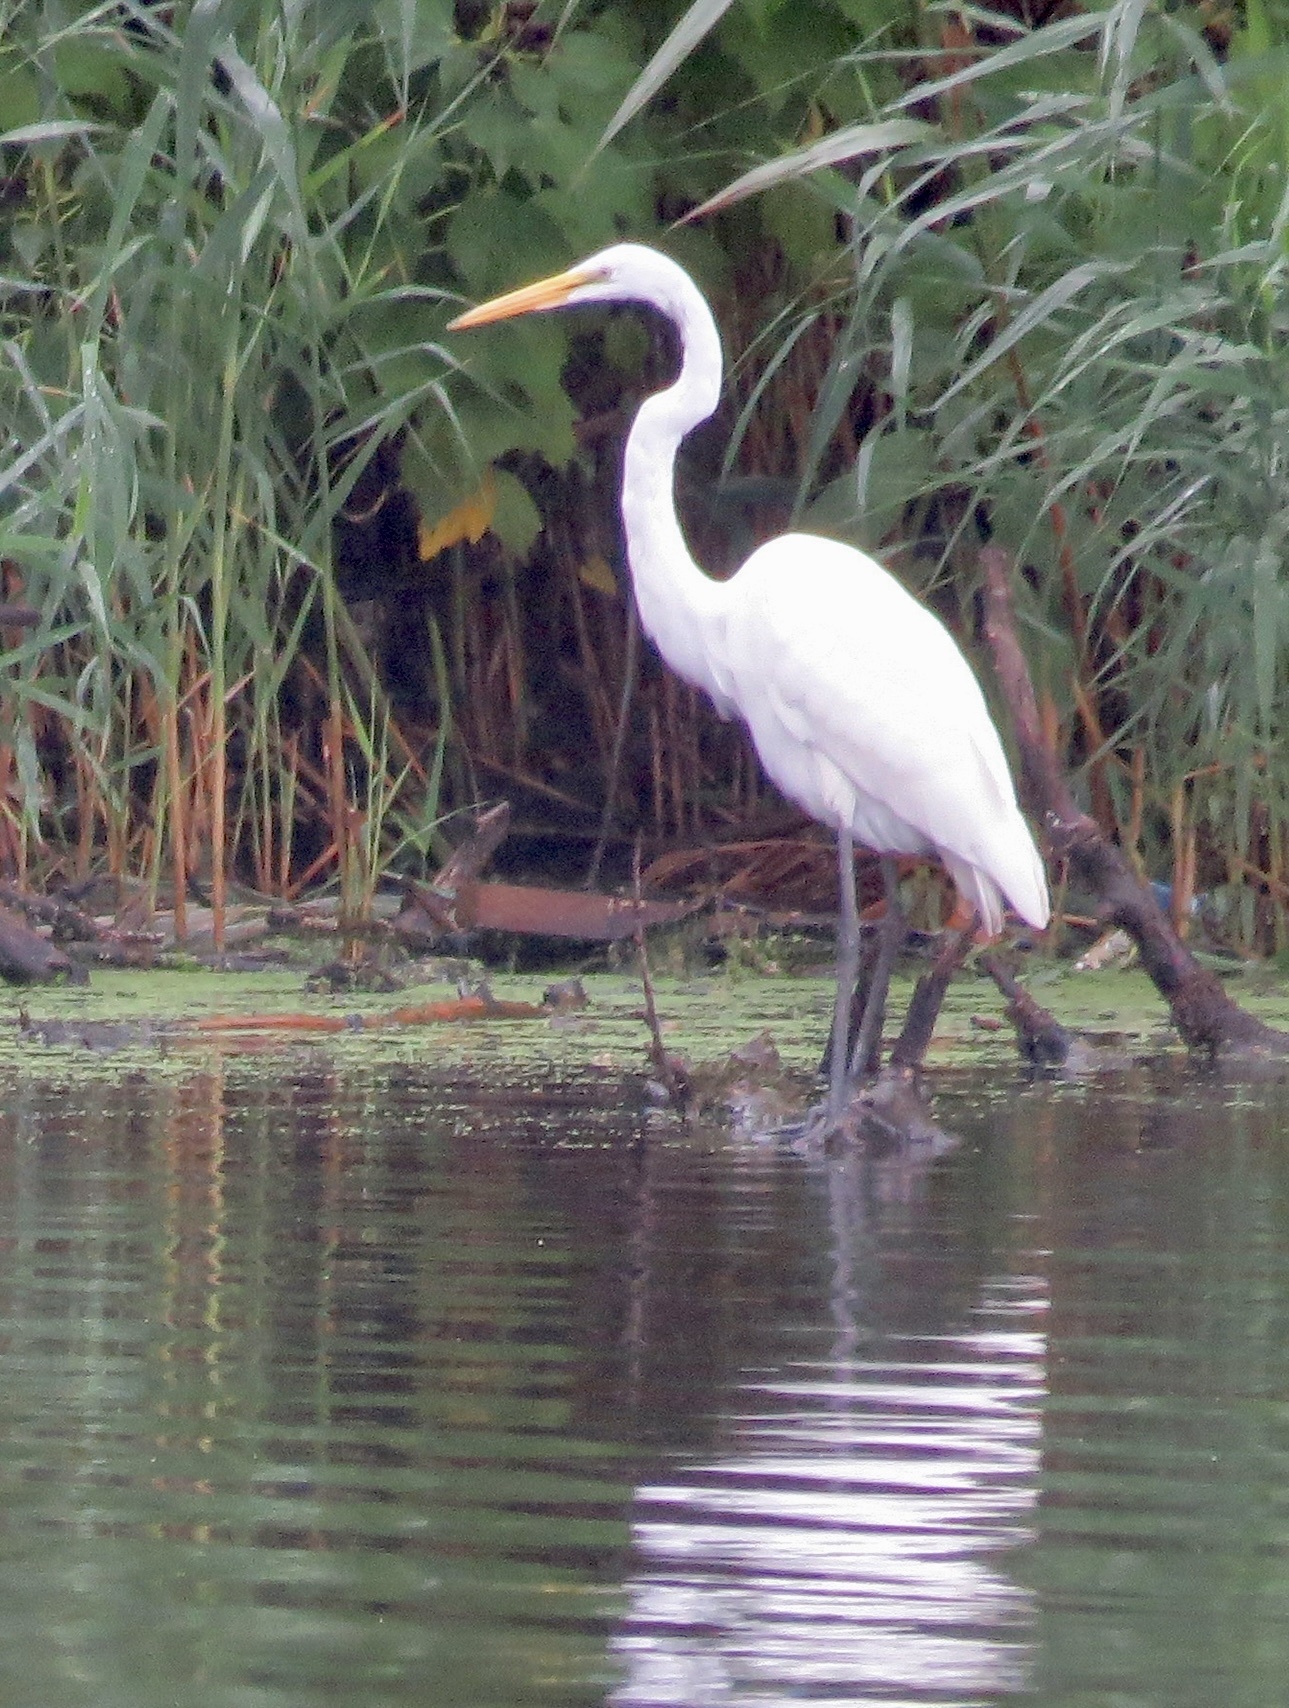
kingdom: Animalia
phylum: Chordata
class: Aves
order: Pelecaniformes
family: Ardeidae
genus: Ardea
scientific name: Ardea alba
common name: Great egret
